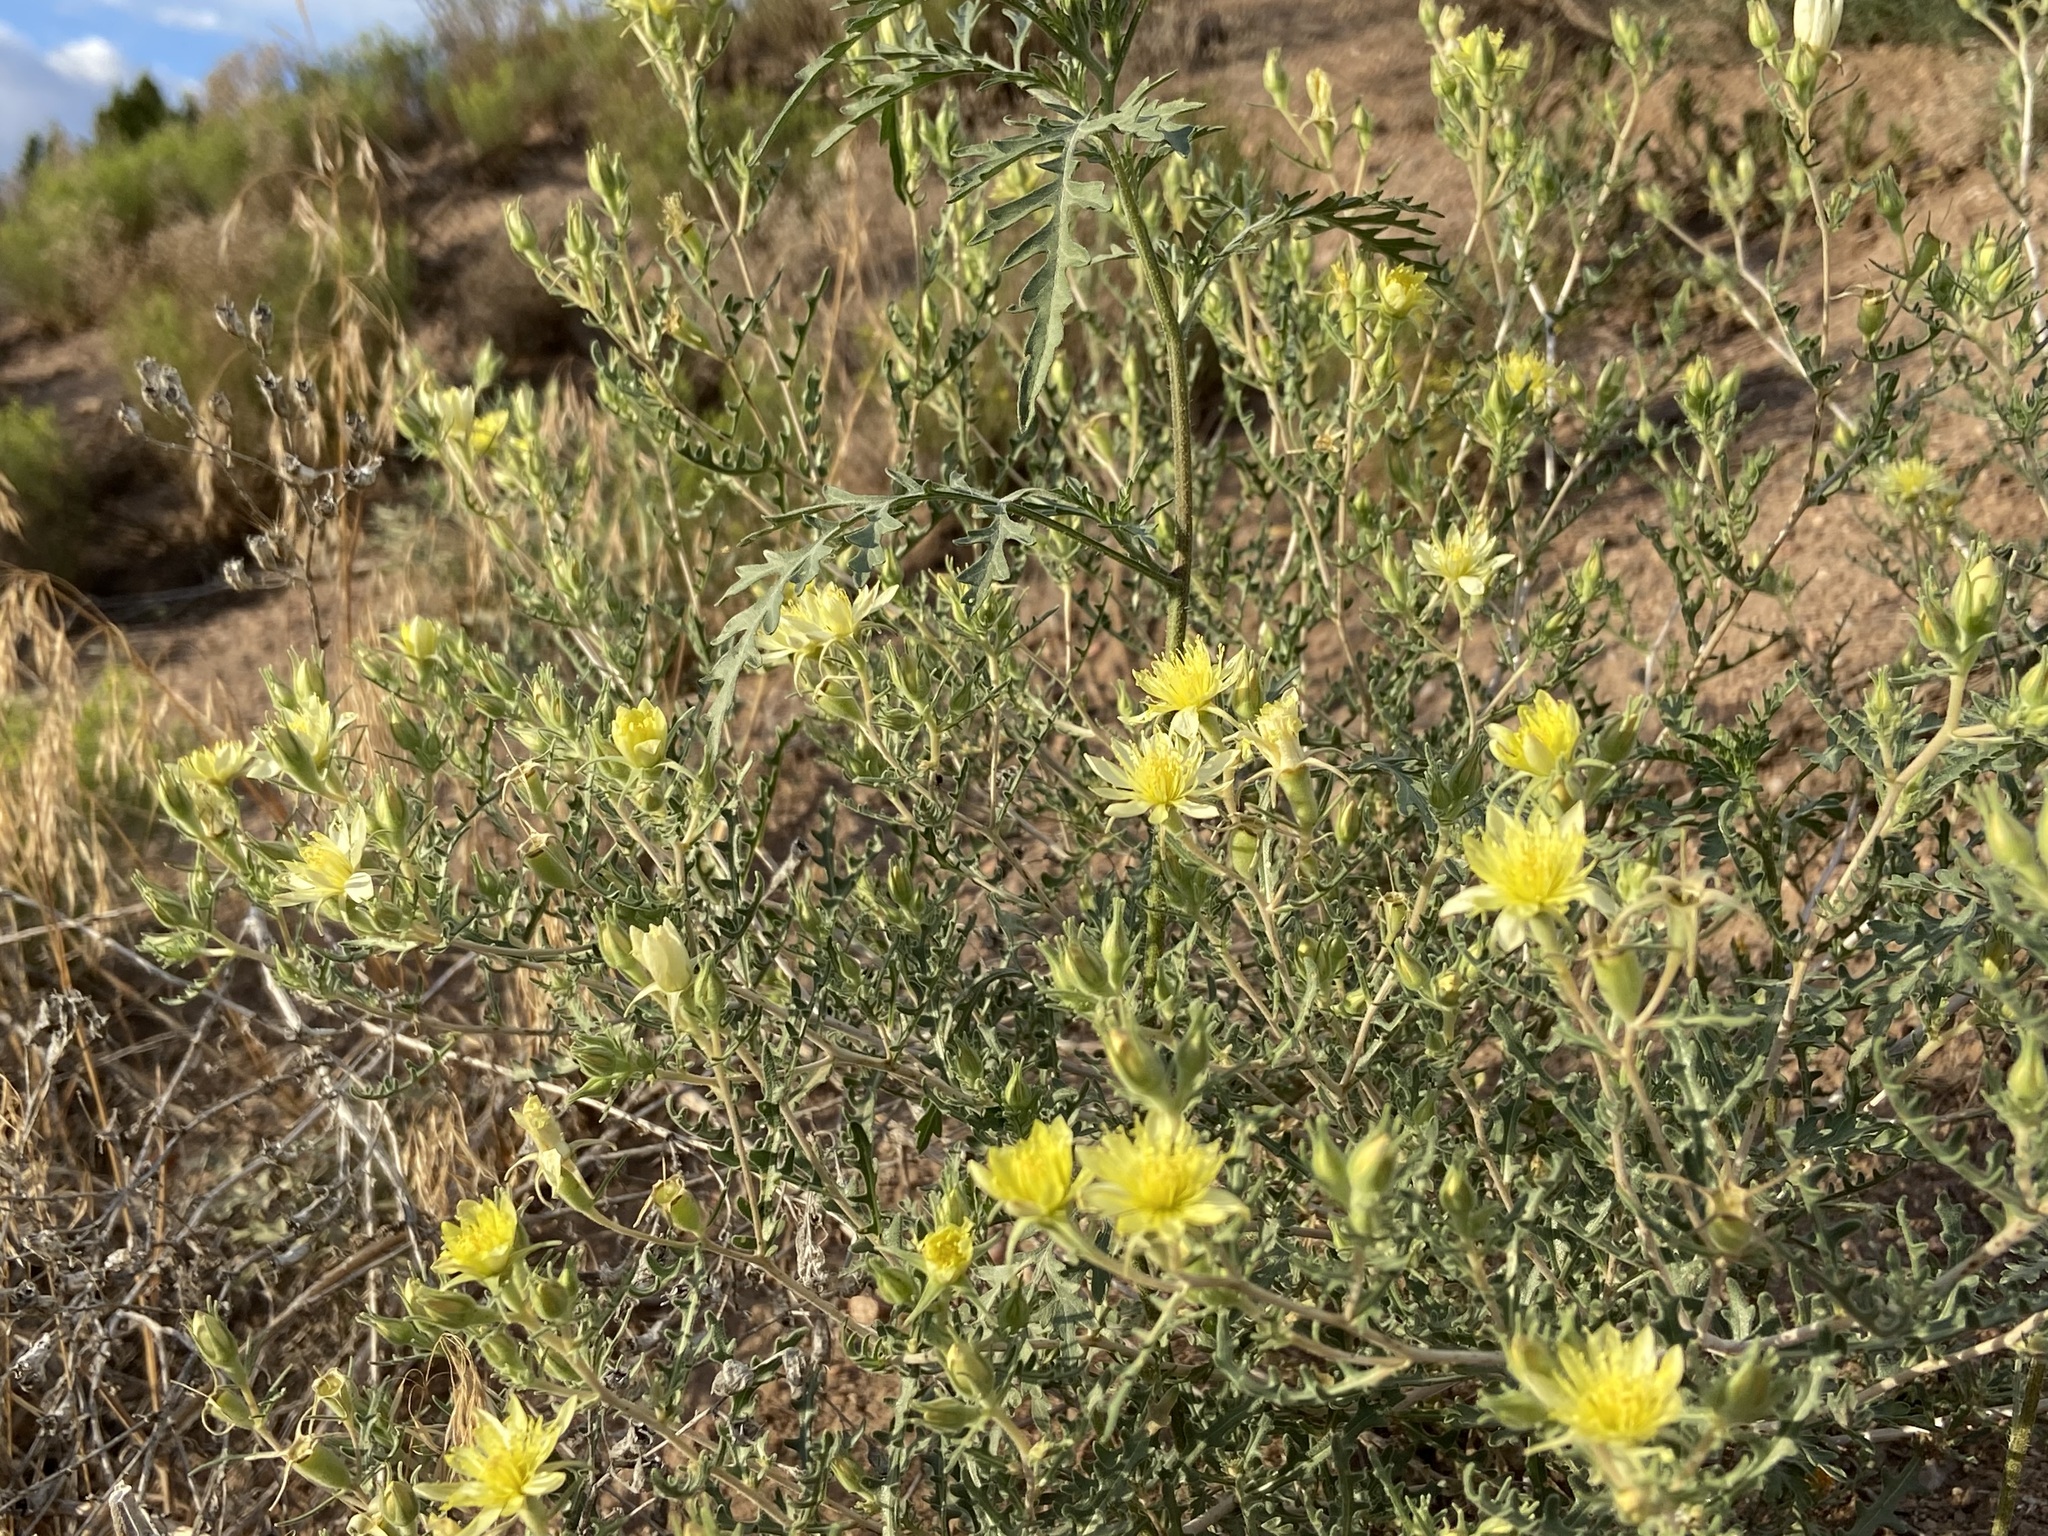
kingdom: Plantae
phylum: Tracheophyta
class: Magnoliopsida
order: Cornales
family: Loasaceae
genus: Mentzelia
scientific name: Mentzelia procera
